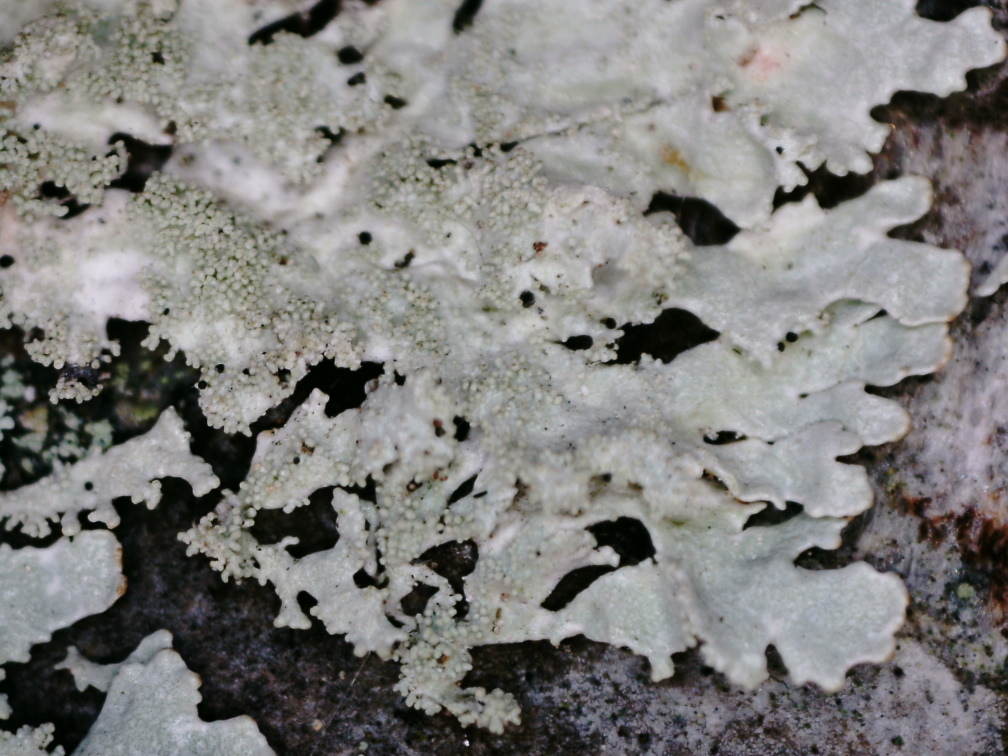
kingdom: Fungi
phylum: Ascomycota
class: Lecanoromycetes
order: Lecanorales
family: Parmeliaceae
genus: Imshaugia
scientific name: Imshaugia aleurites
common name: Salted starburst lichen
